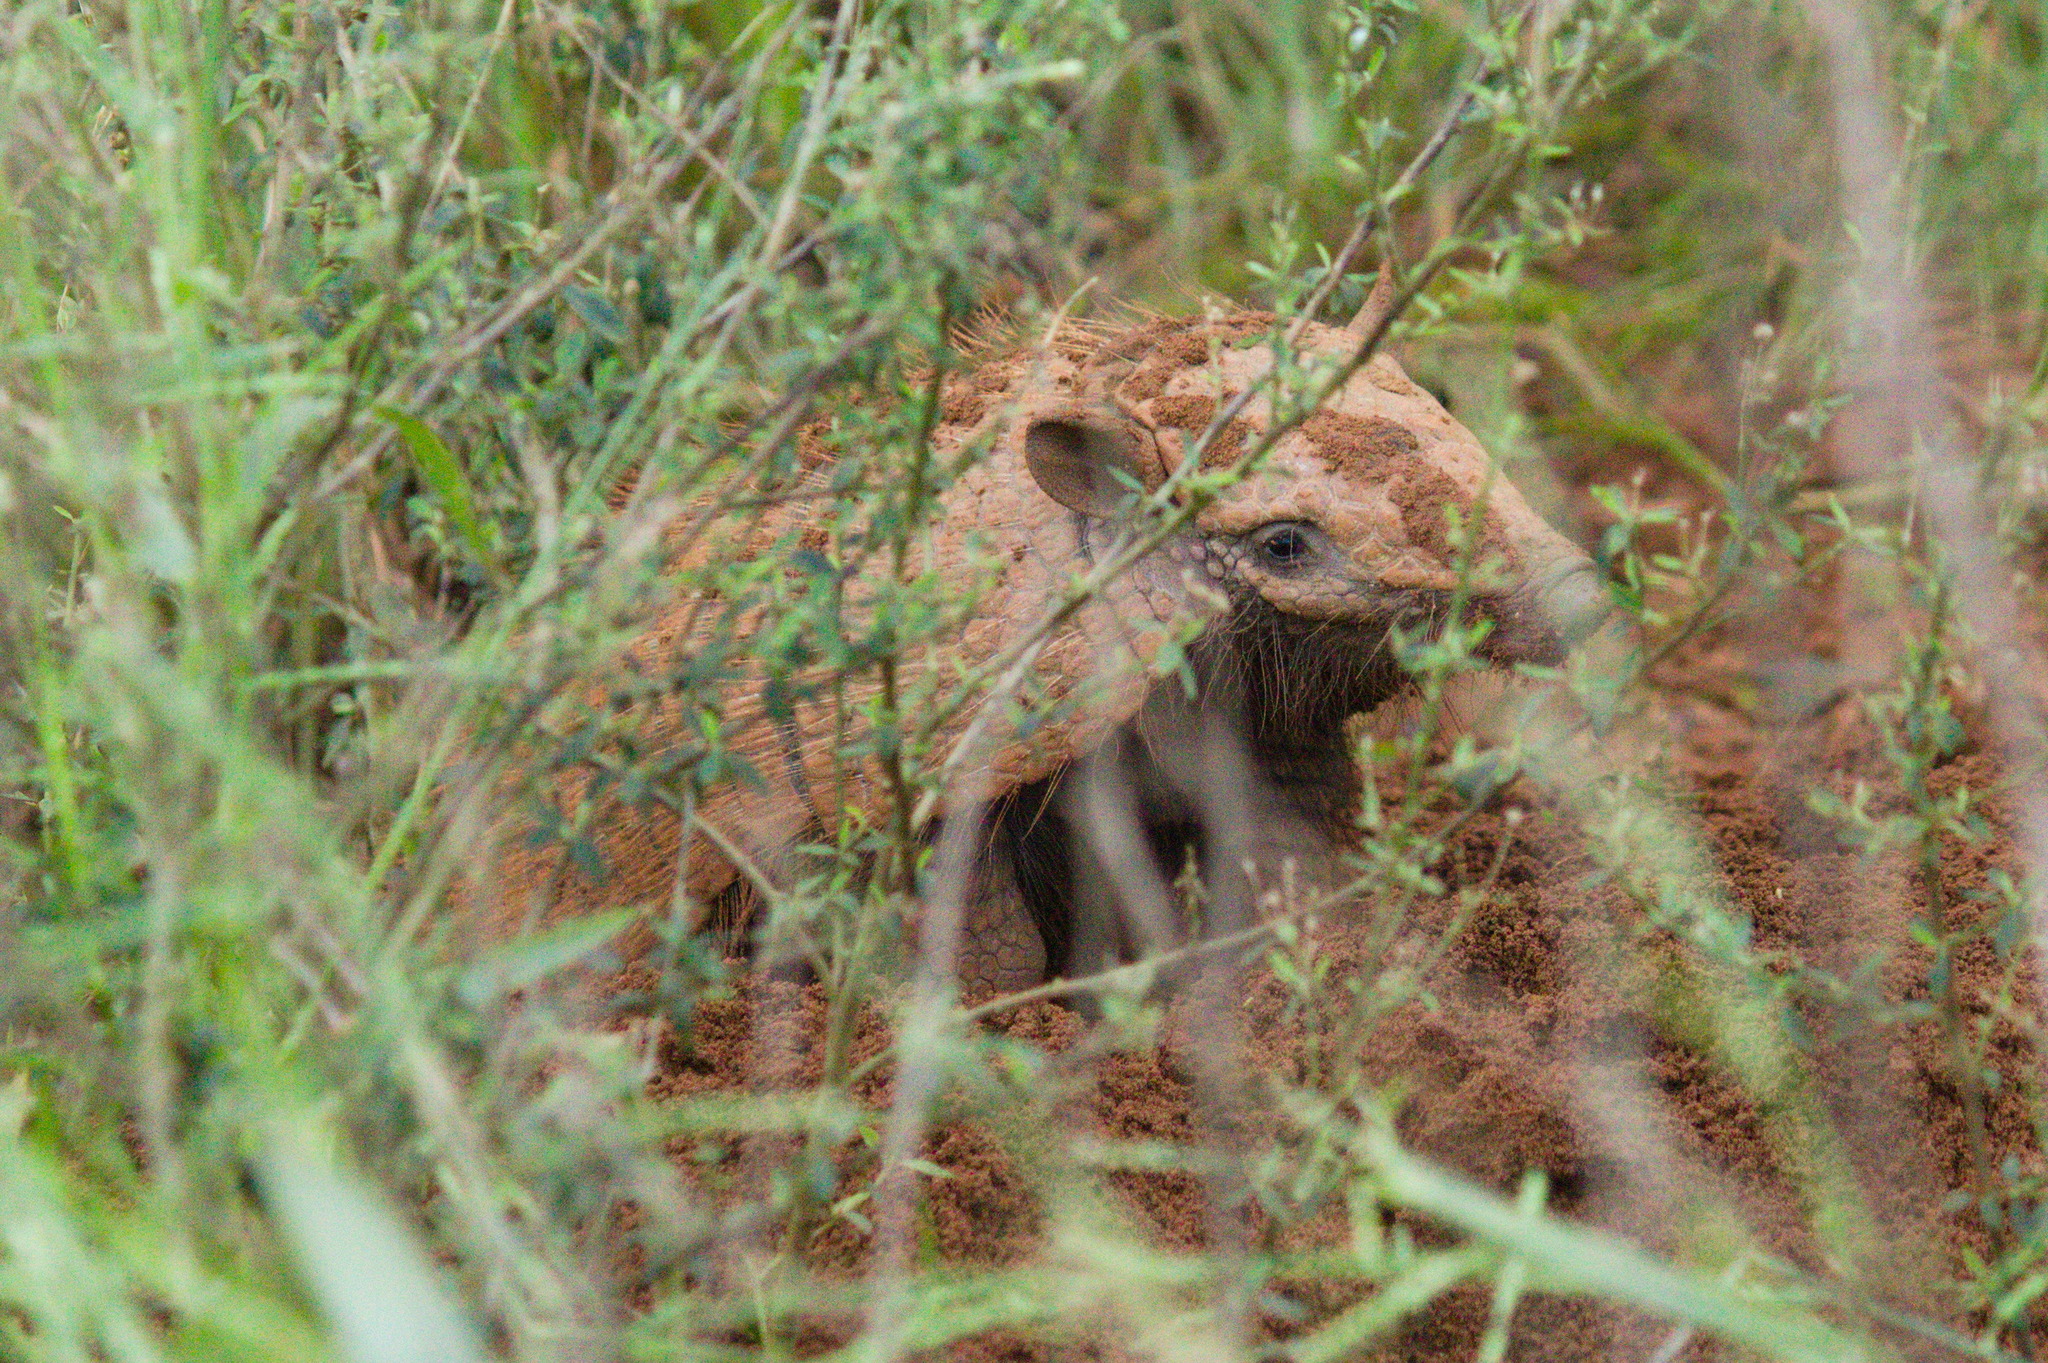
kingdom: Animalia
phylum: Chordata
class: Mammalia
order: Cingulata
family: Dasypodidae
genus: Euphractus
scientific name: Euphractus sexcinctus
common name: Six-banded armadillo
